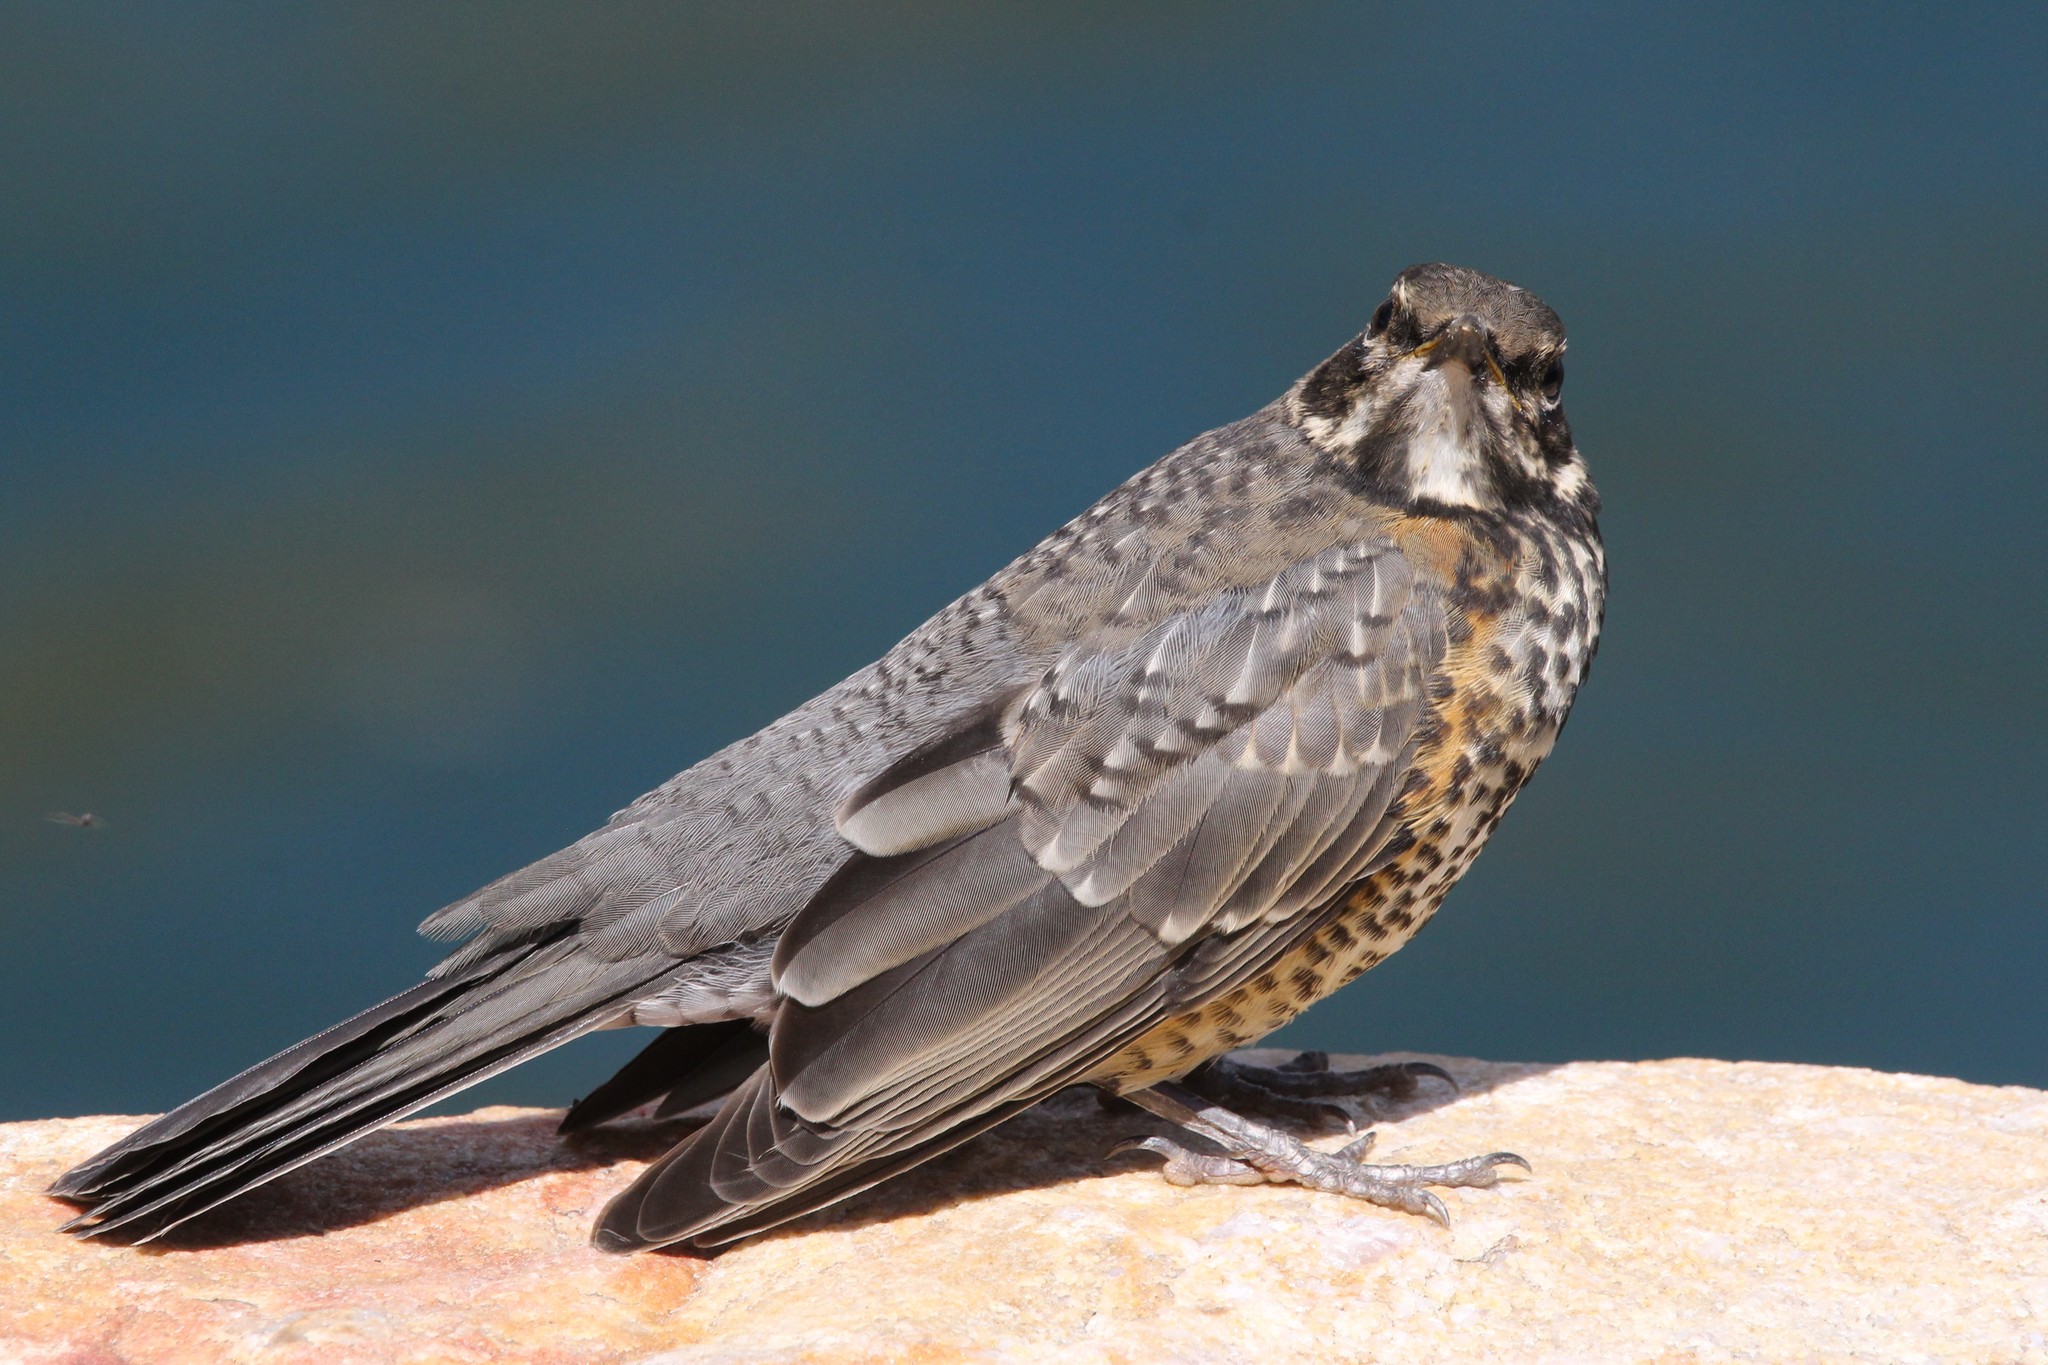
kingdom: Animalia
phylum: Chordata
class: Aves
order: Passeriformes
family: Turdidae
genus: Turdus
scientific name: Turdus migratorius
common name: American robin
